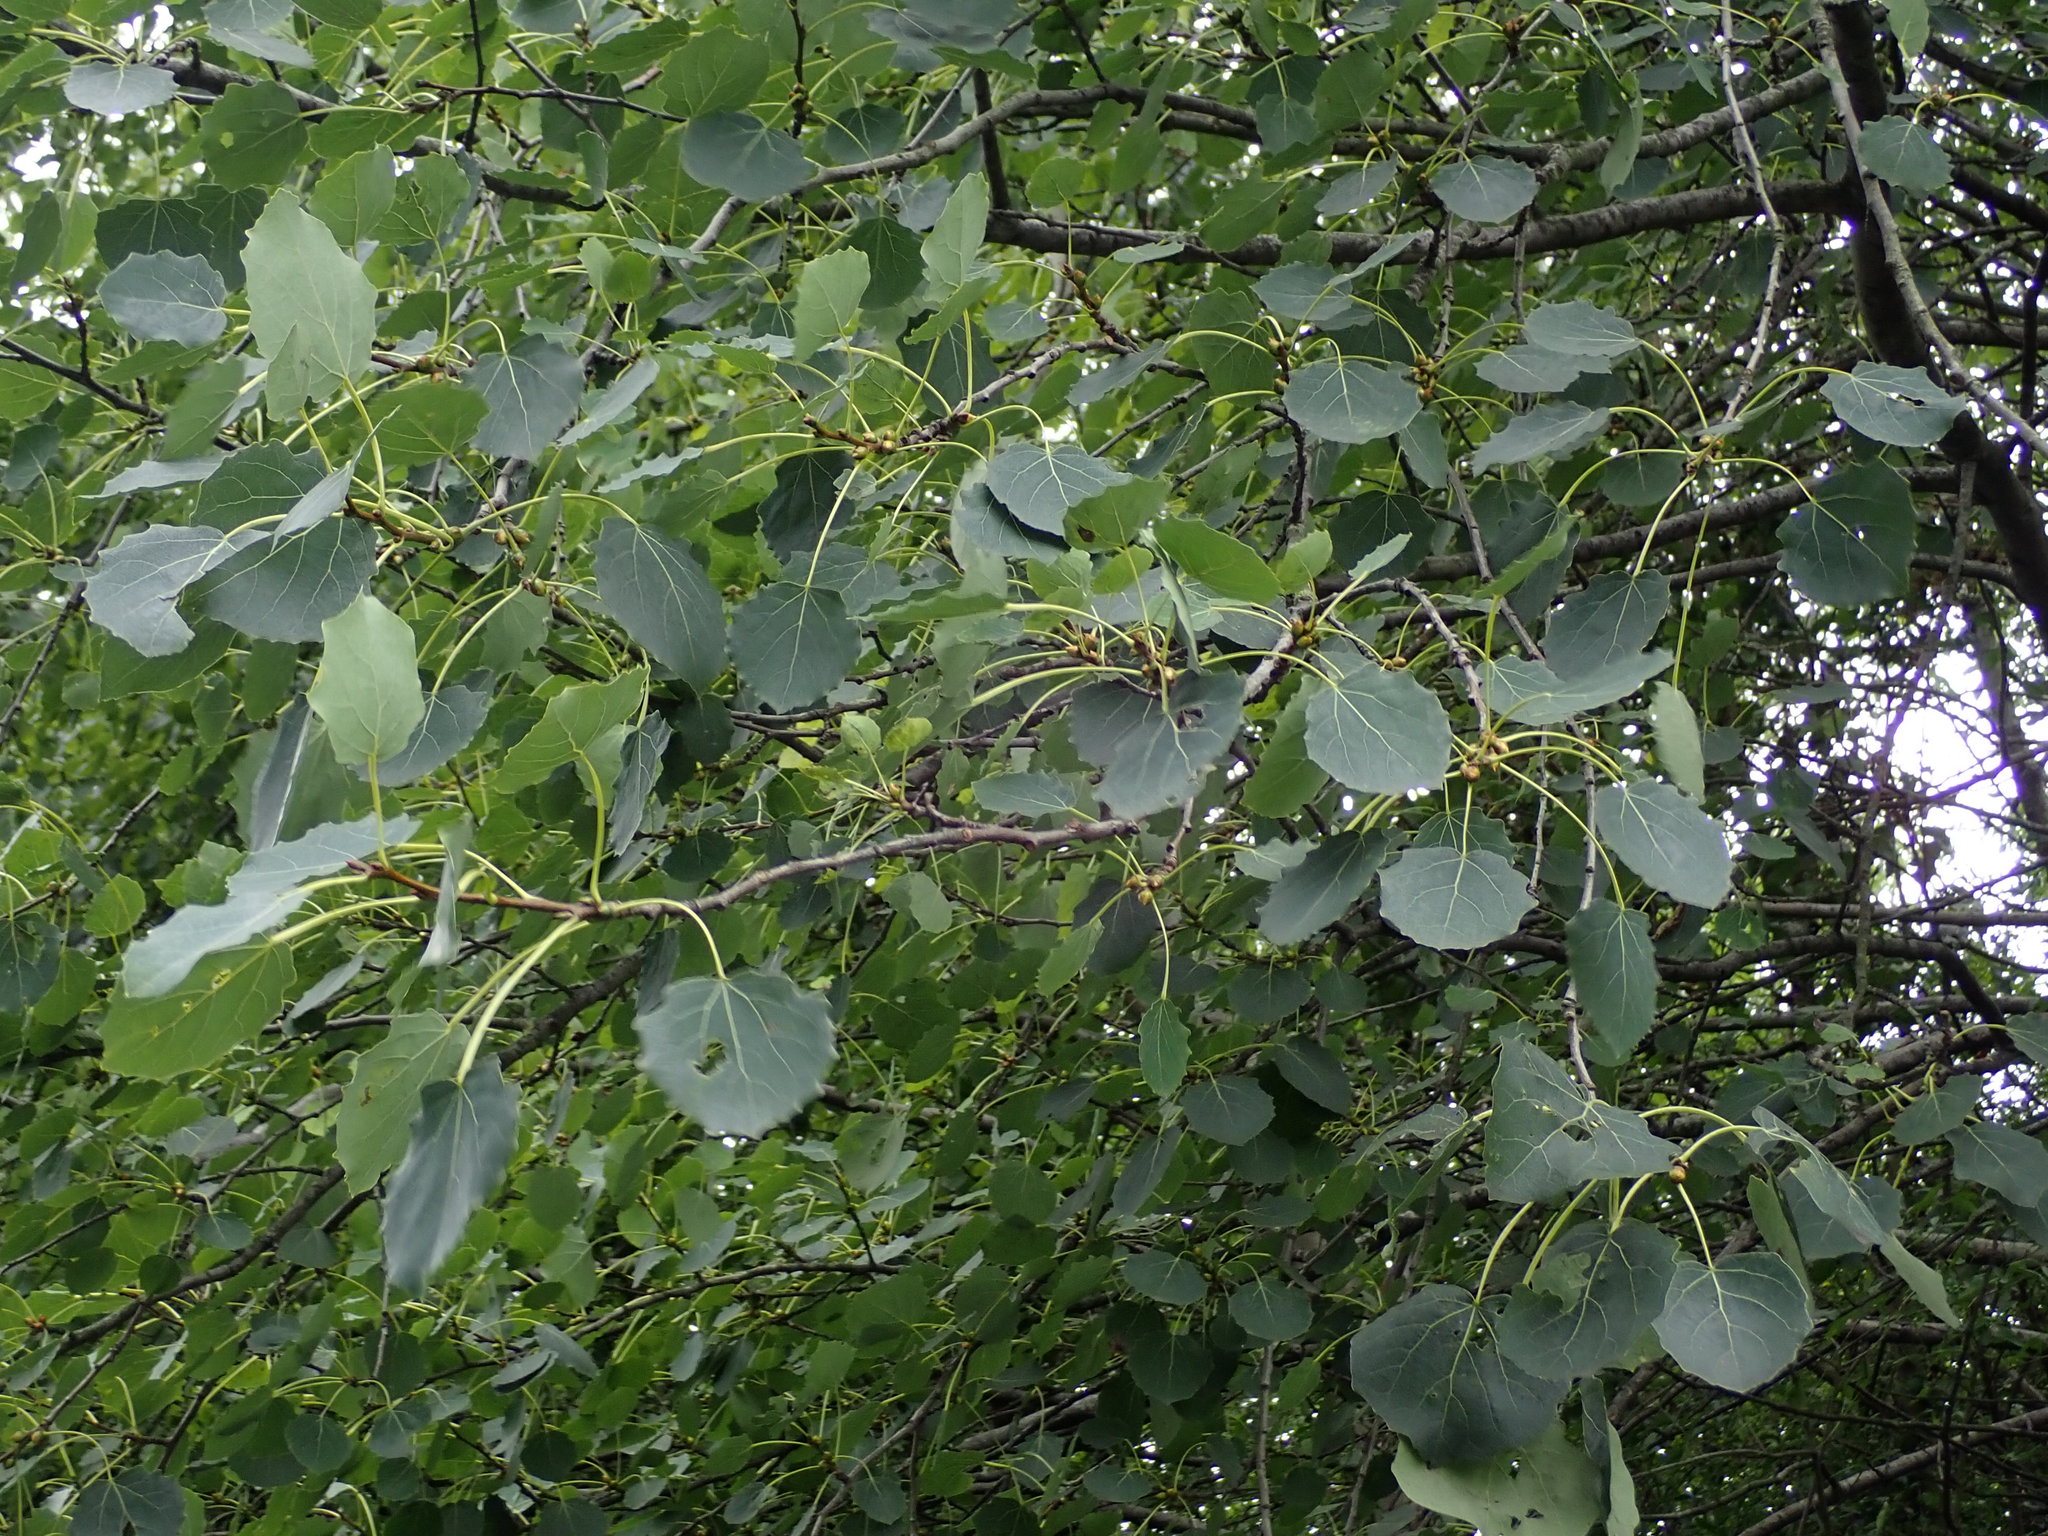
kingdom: Plantae
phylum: Tracheophyta
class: Magnoliopsida
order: Malpighiales
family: Salicaceae
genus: Populus
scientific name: Populus tremula
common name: European aspen
